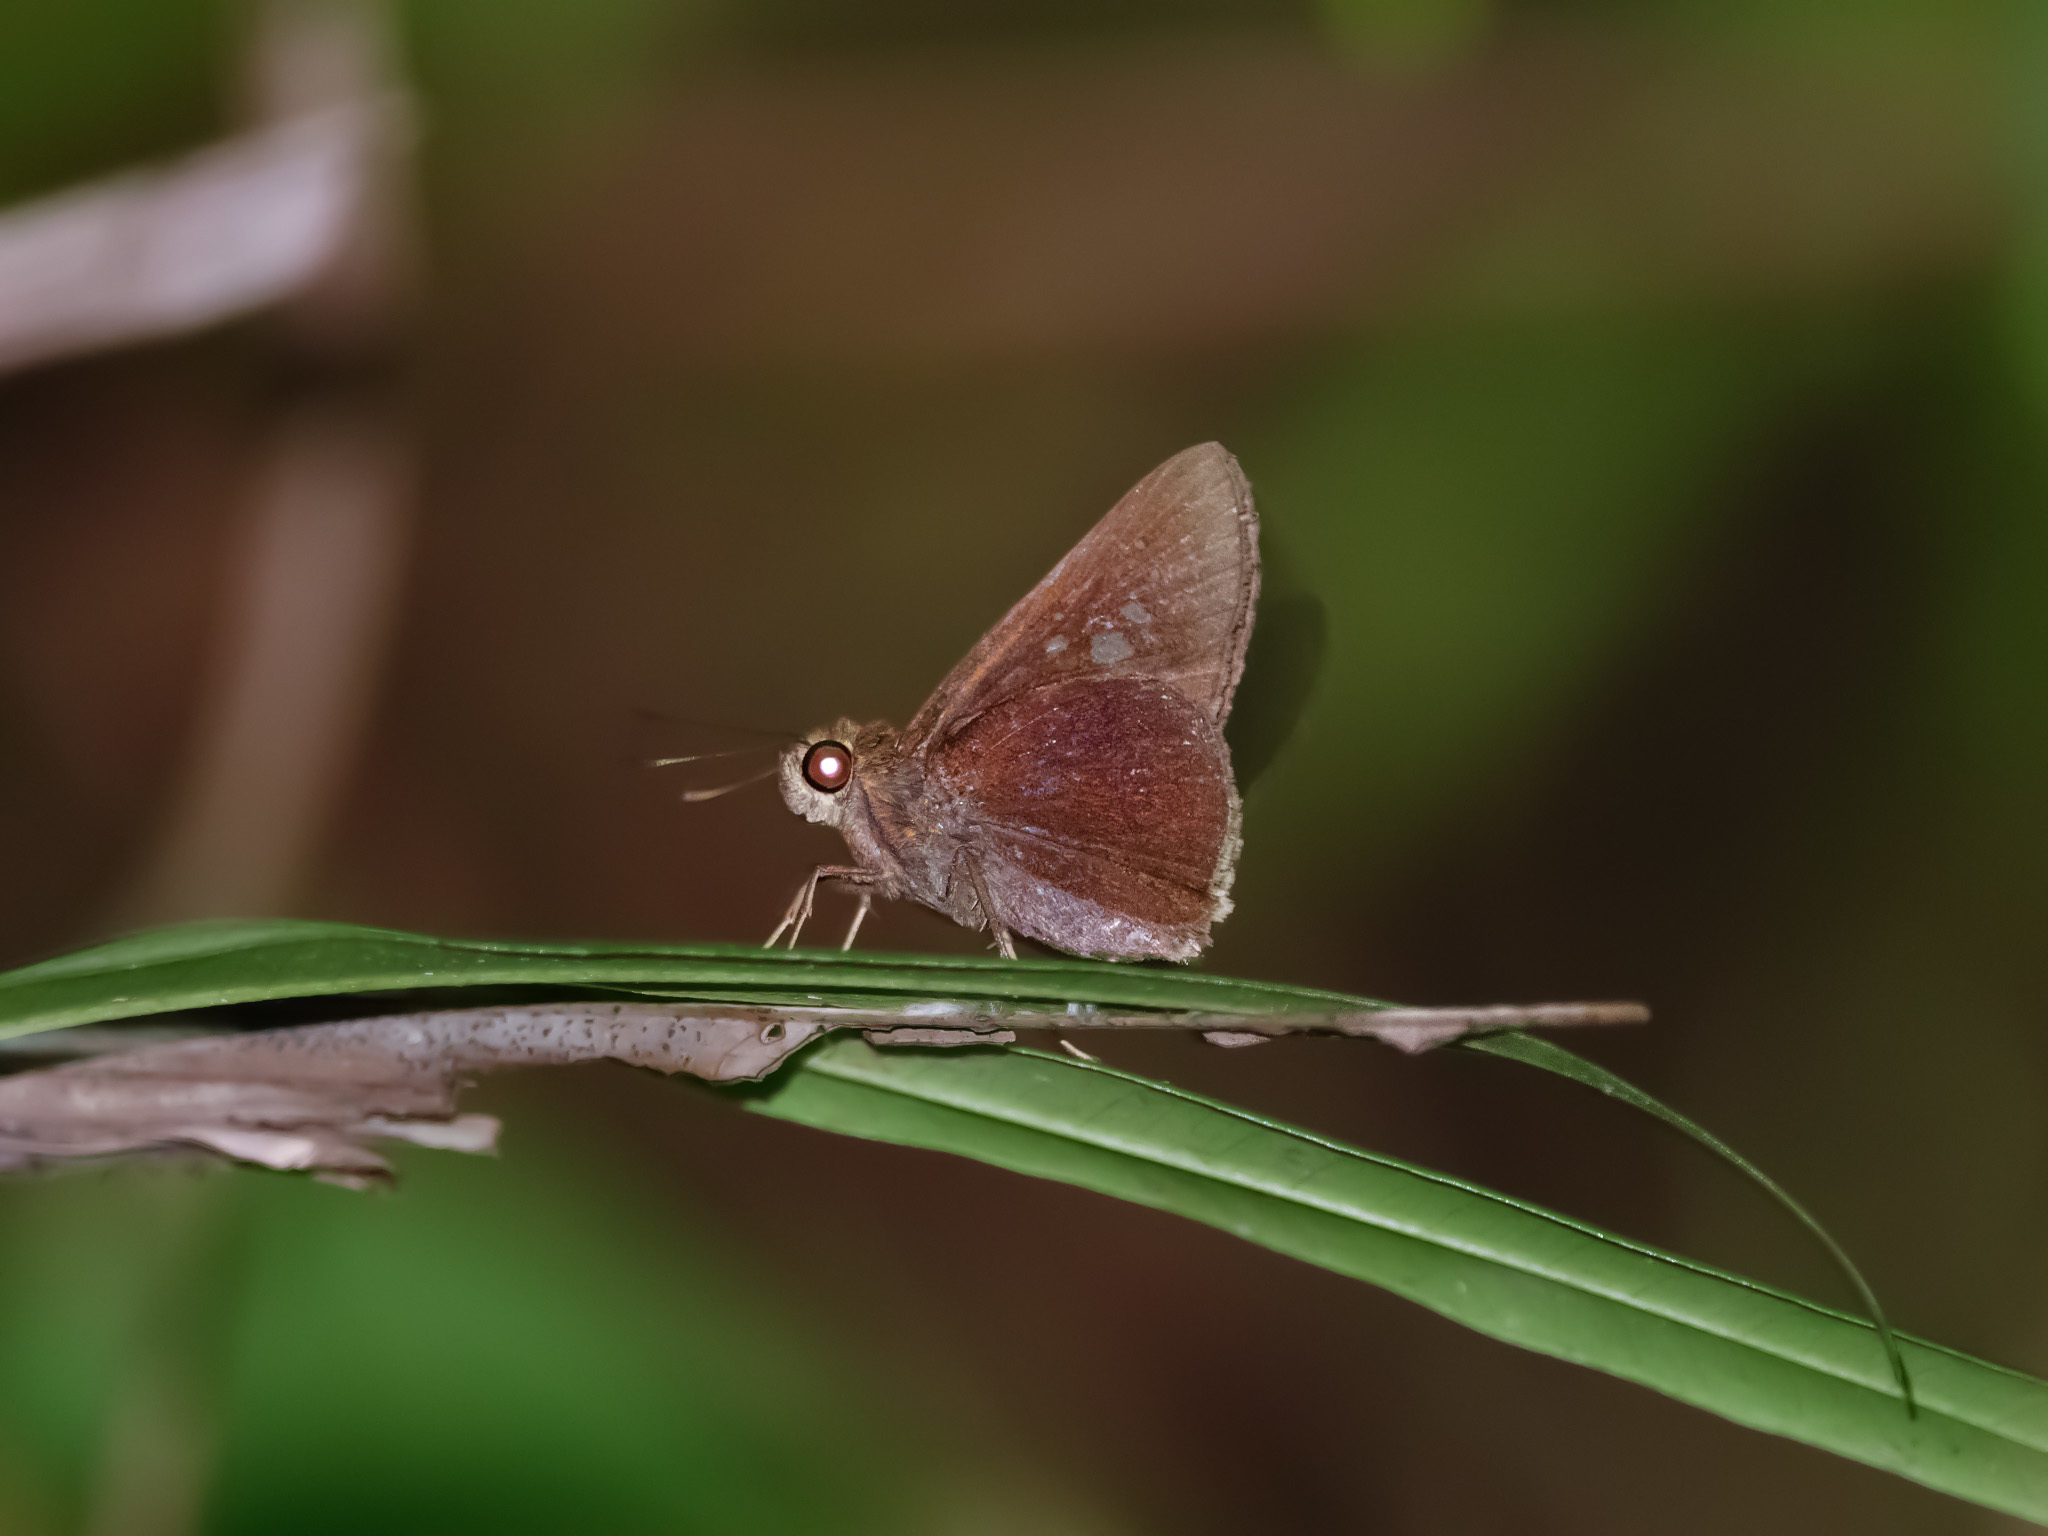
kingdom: Animalia
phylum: Arthropoda
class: Insecta
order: Lepidoptera
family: Hesperiidae
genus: Caltoris
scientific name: Caltoris cormasa
